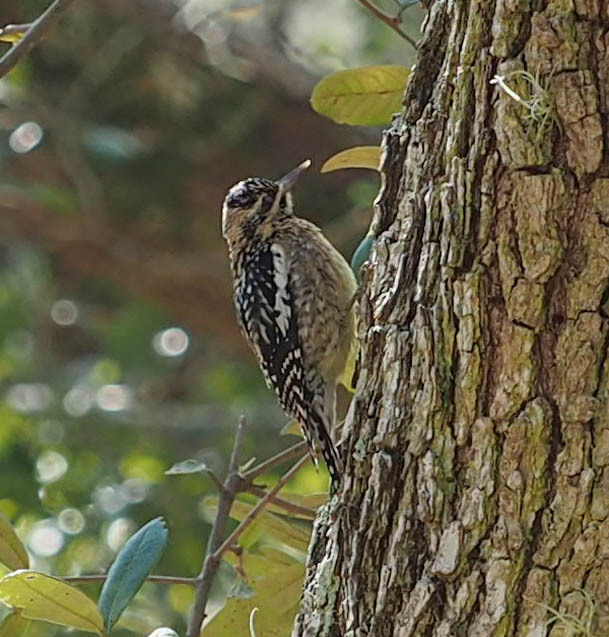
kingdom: Animalia
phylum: Chordata
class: Aves
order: Piciformes
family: Picidae
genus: Sphyrapicus
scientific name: Sphyrapicus varius
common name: Yellow-bellied sapsucker
